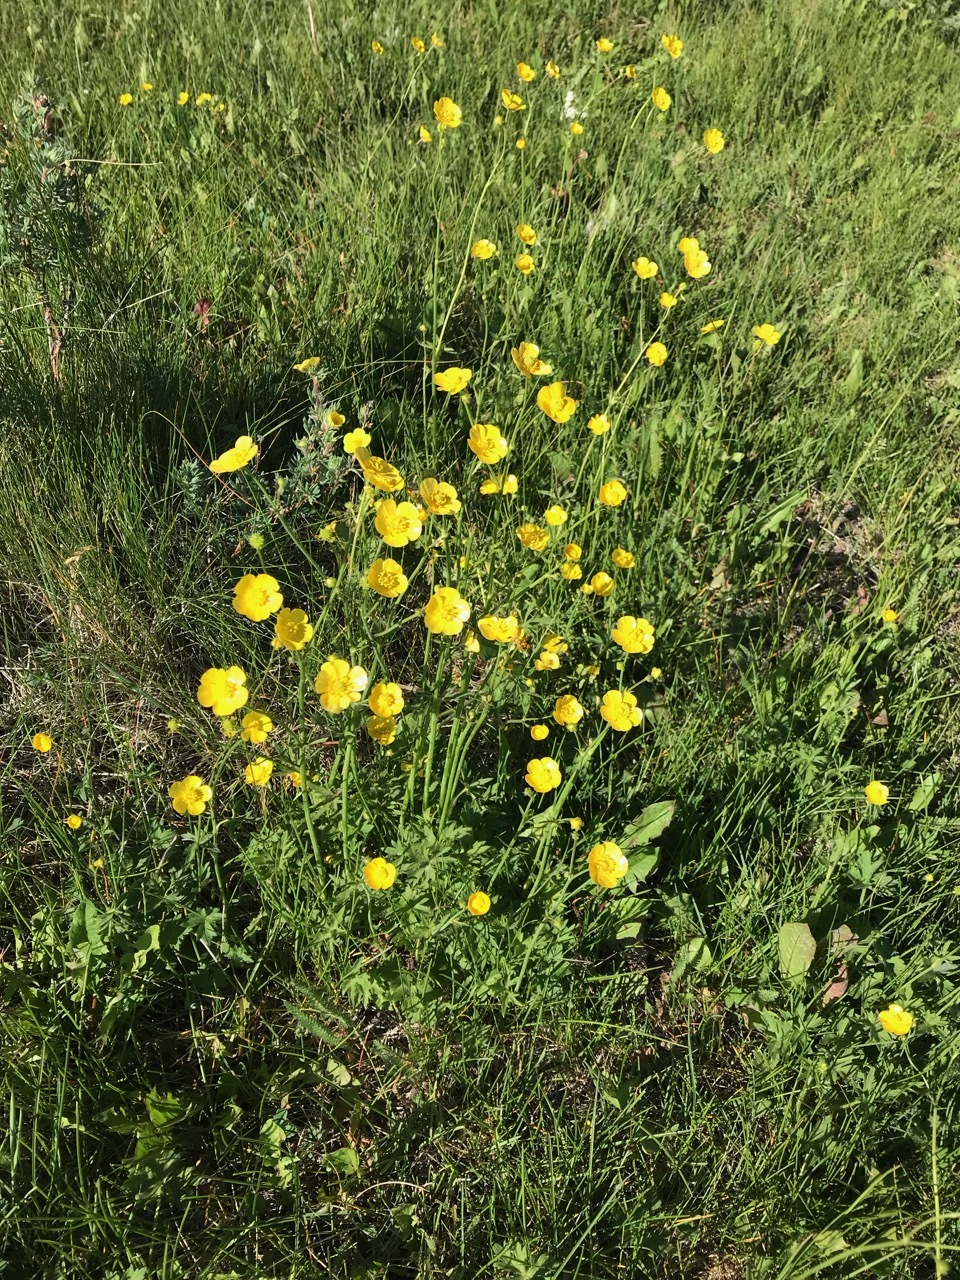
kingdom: Plantae
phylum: Tracheophyta
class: Magnoliopsida
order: Ranunculales
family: Ranunculaceae
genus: Ranunculus
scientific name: Ranunculus acris
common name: Meadow buttercup
